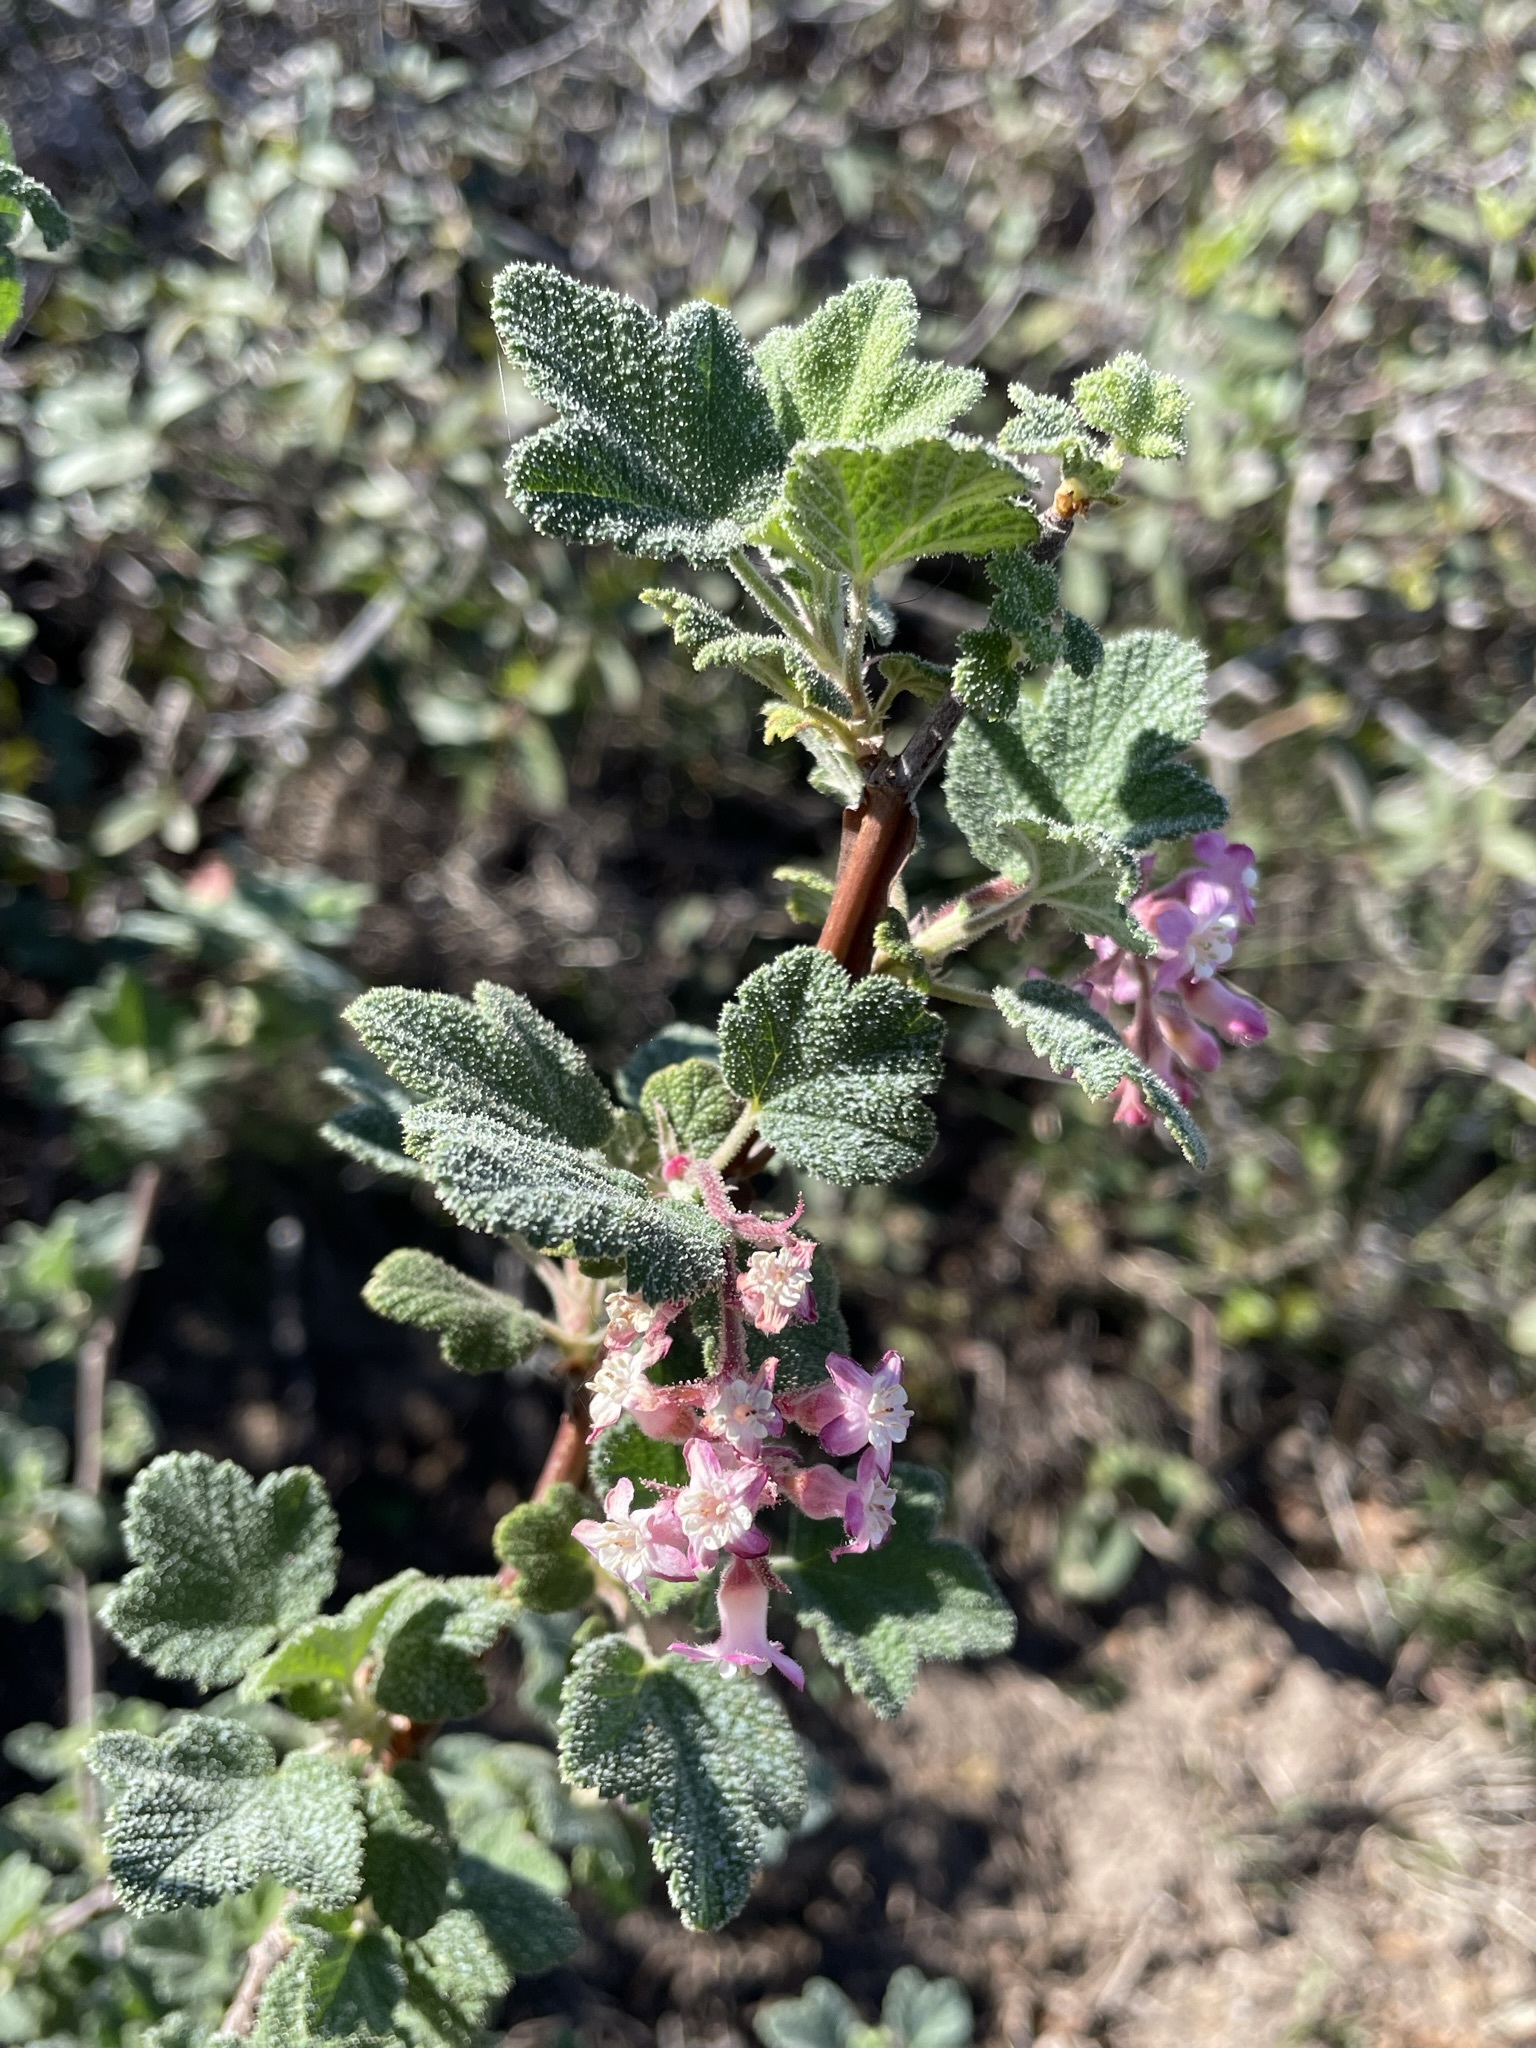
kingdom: Plantae
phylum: Tracheophyta
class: Magnoliopsida
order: Saxifragales
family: Grossulariaceae
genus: Ribes
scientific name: Ribes malvaceum
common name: Chaparral currant
